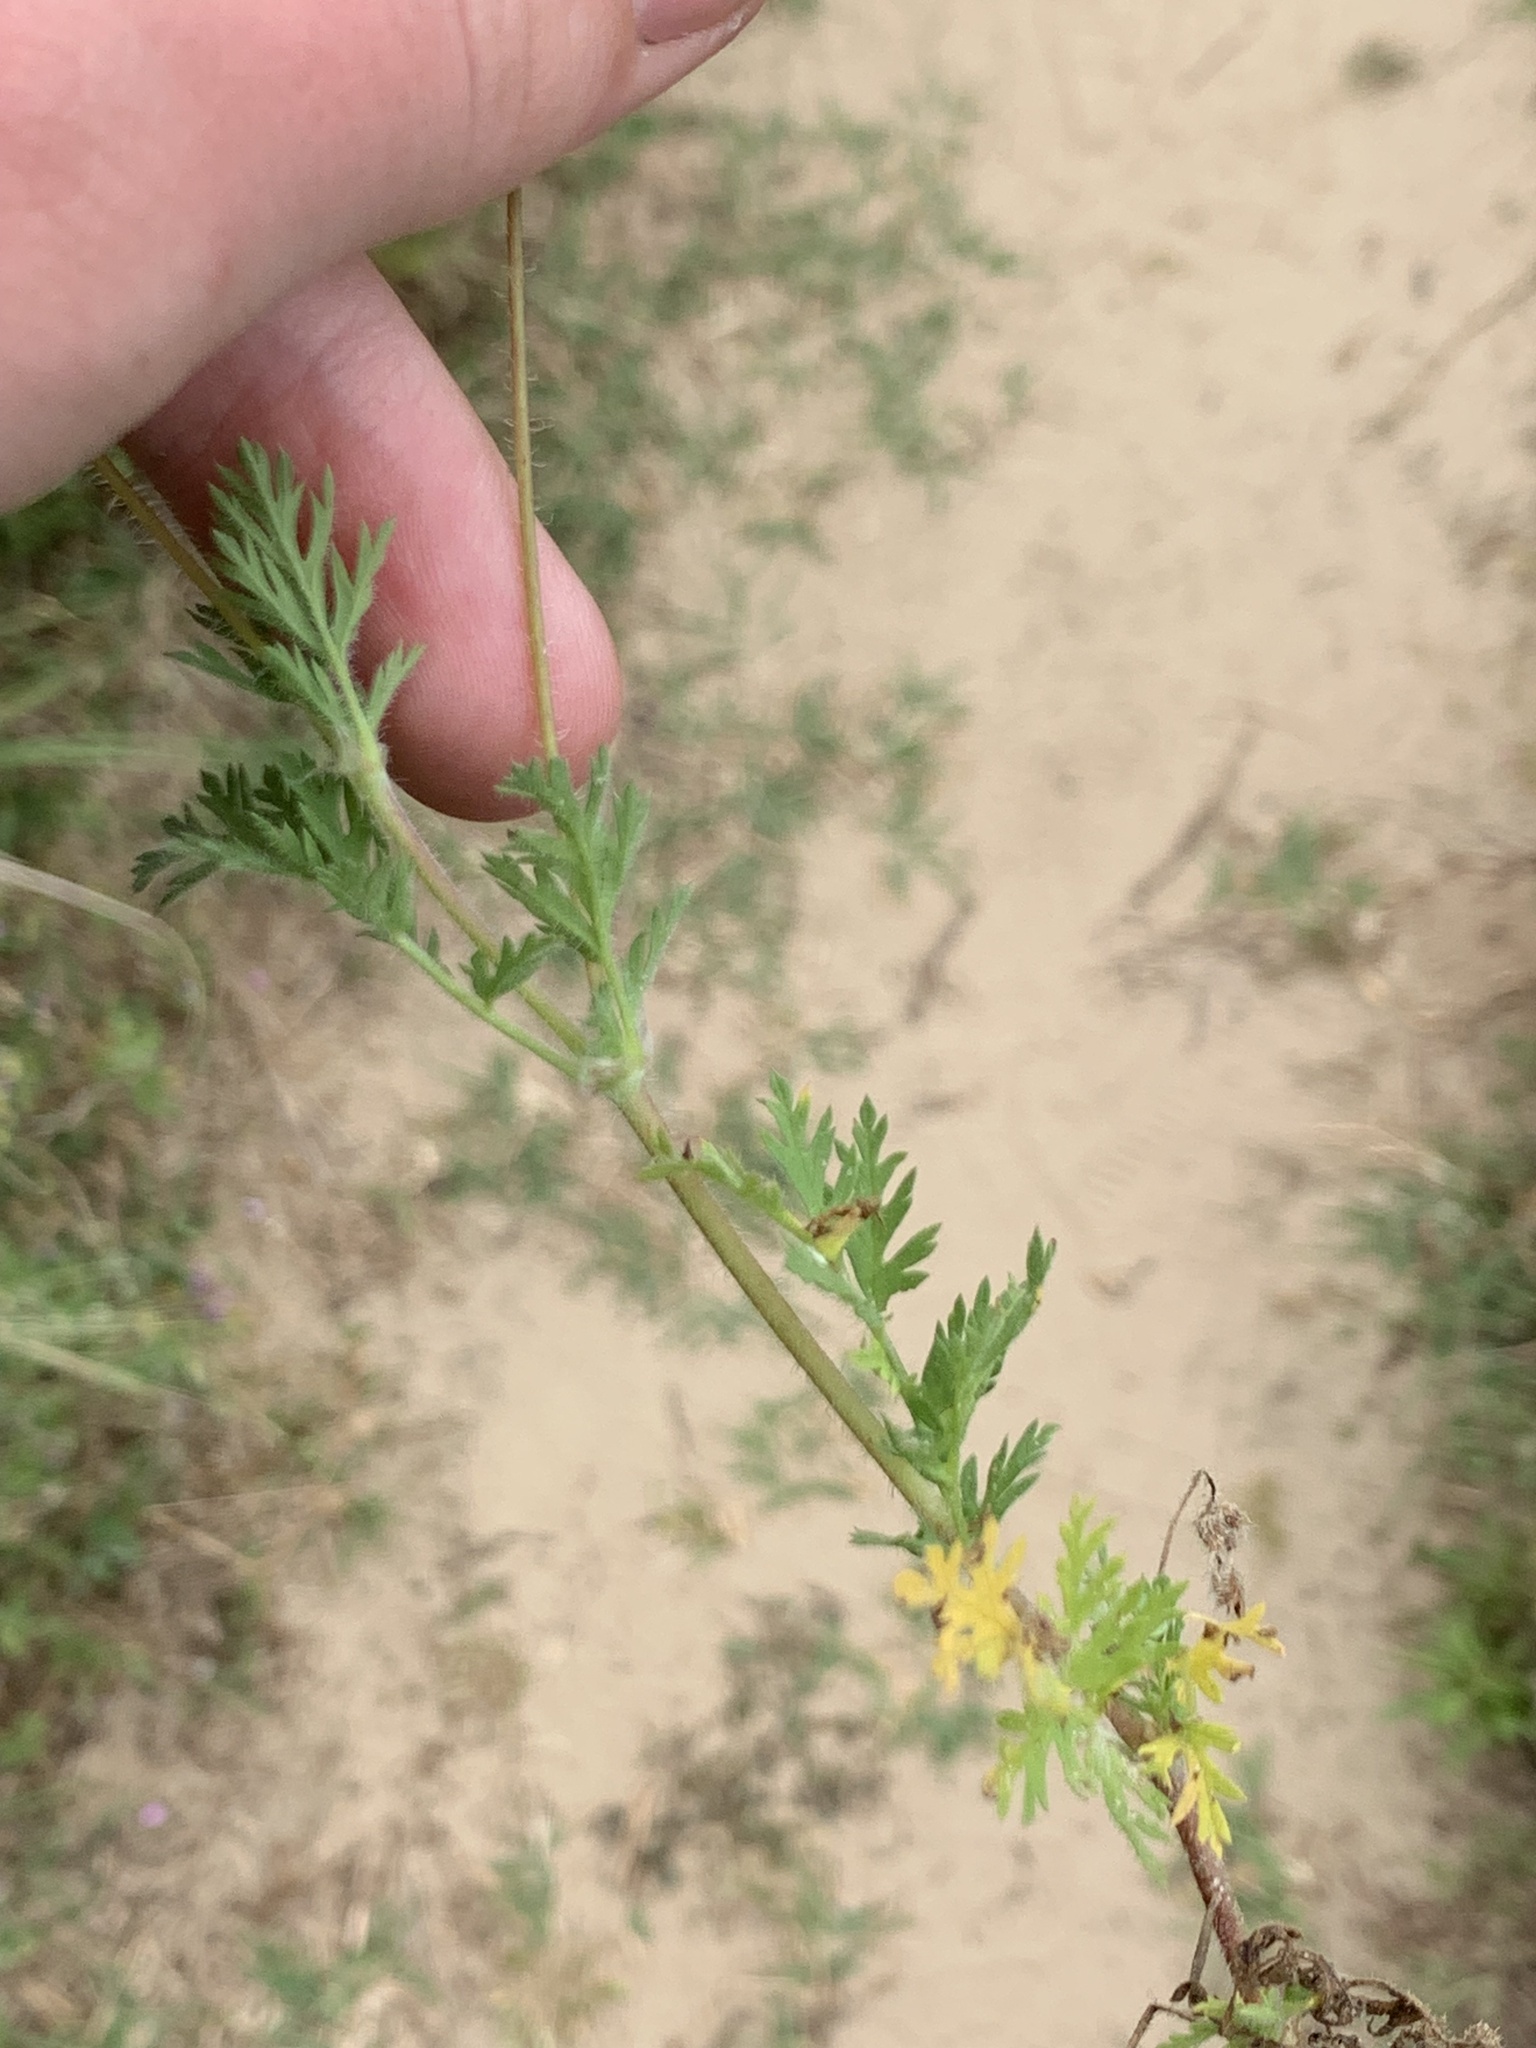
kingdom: Plantae
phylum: Tracheophyta
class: Magnoliopsida
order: Geraniales
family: Geraniaceae
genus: Erodium
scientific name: Erodium cicutarium
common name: Common stork's-bill
